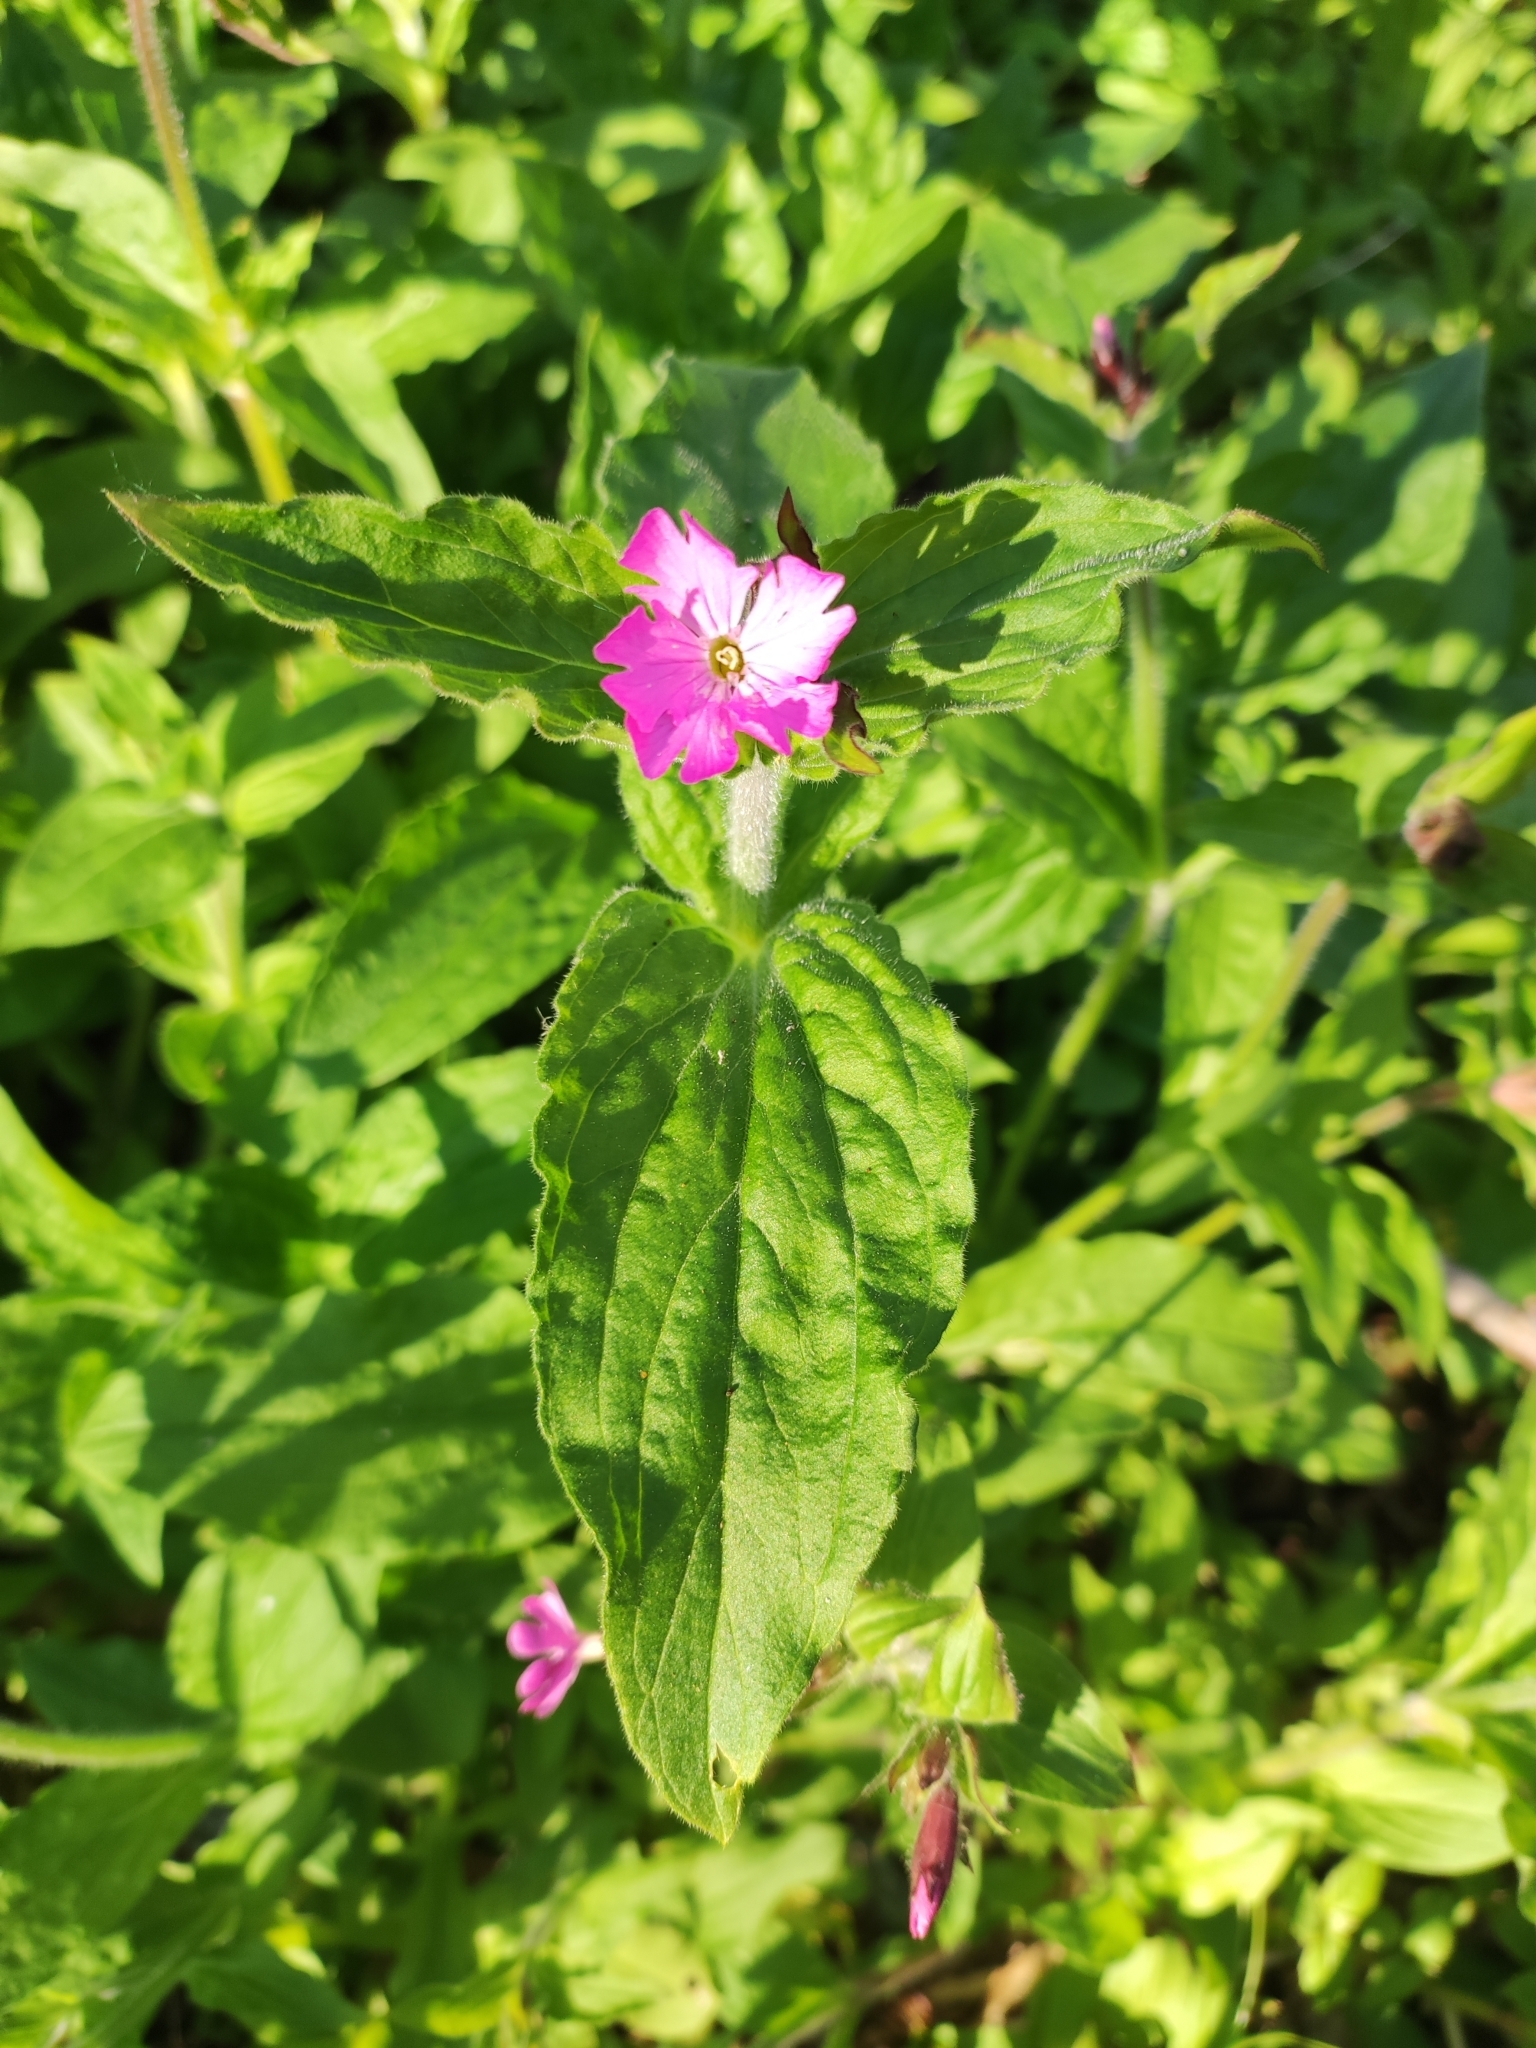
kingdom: Plantae
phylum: Tracheophyta
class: Magnoliopsida
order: Caryophyllales
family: Caryophyllaceae
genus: Silene
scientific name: Silene dioica
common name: Red campion
